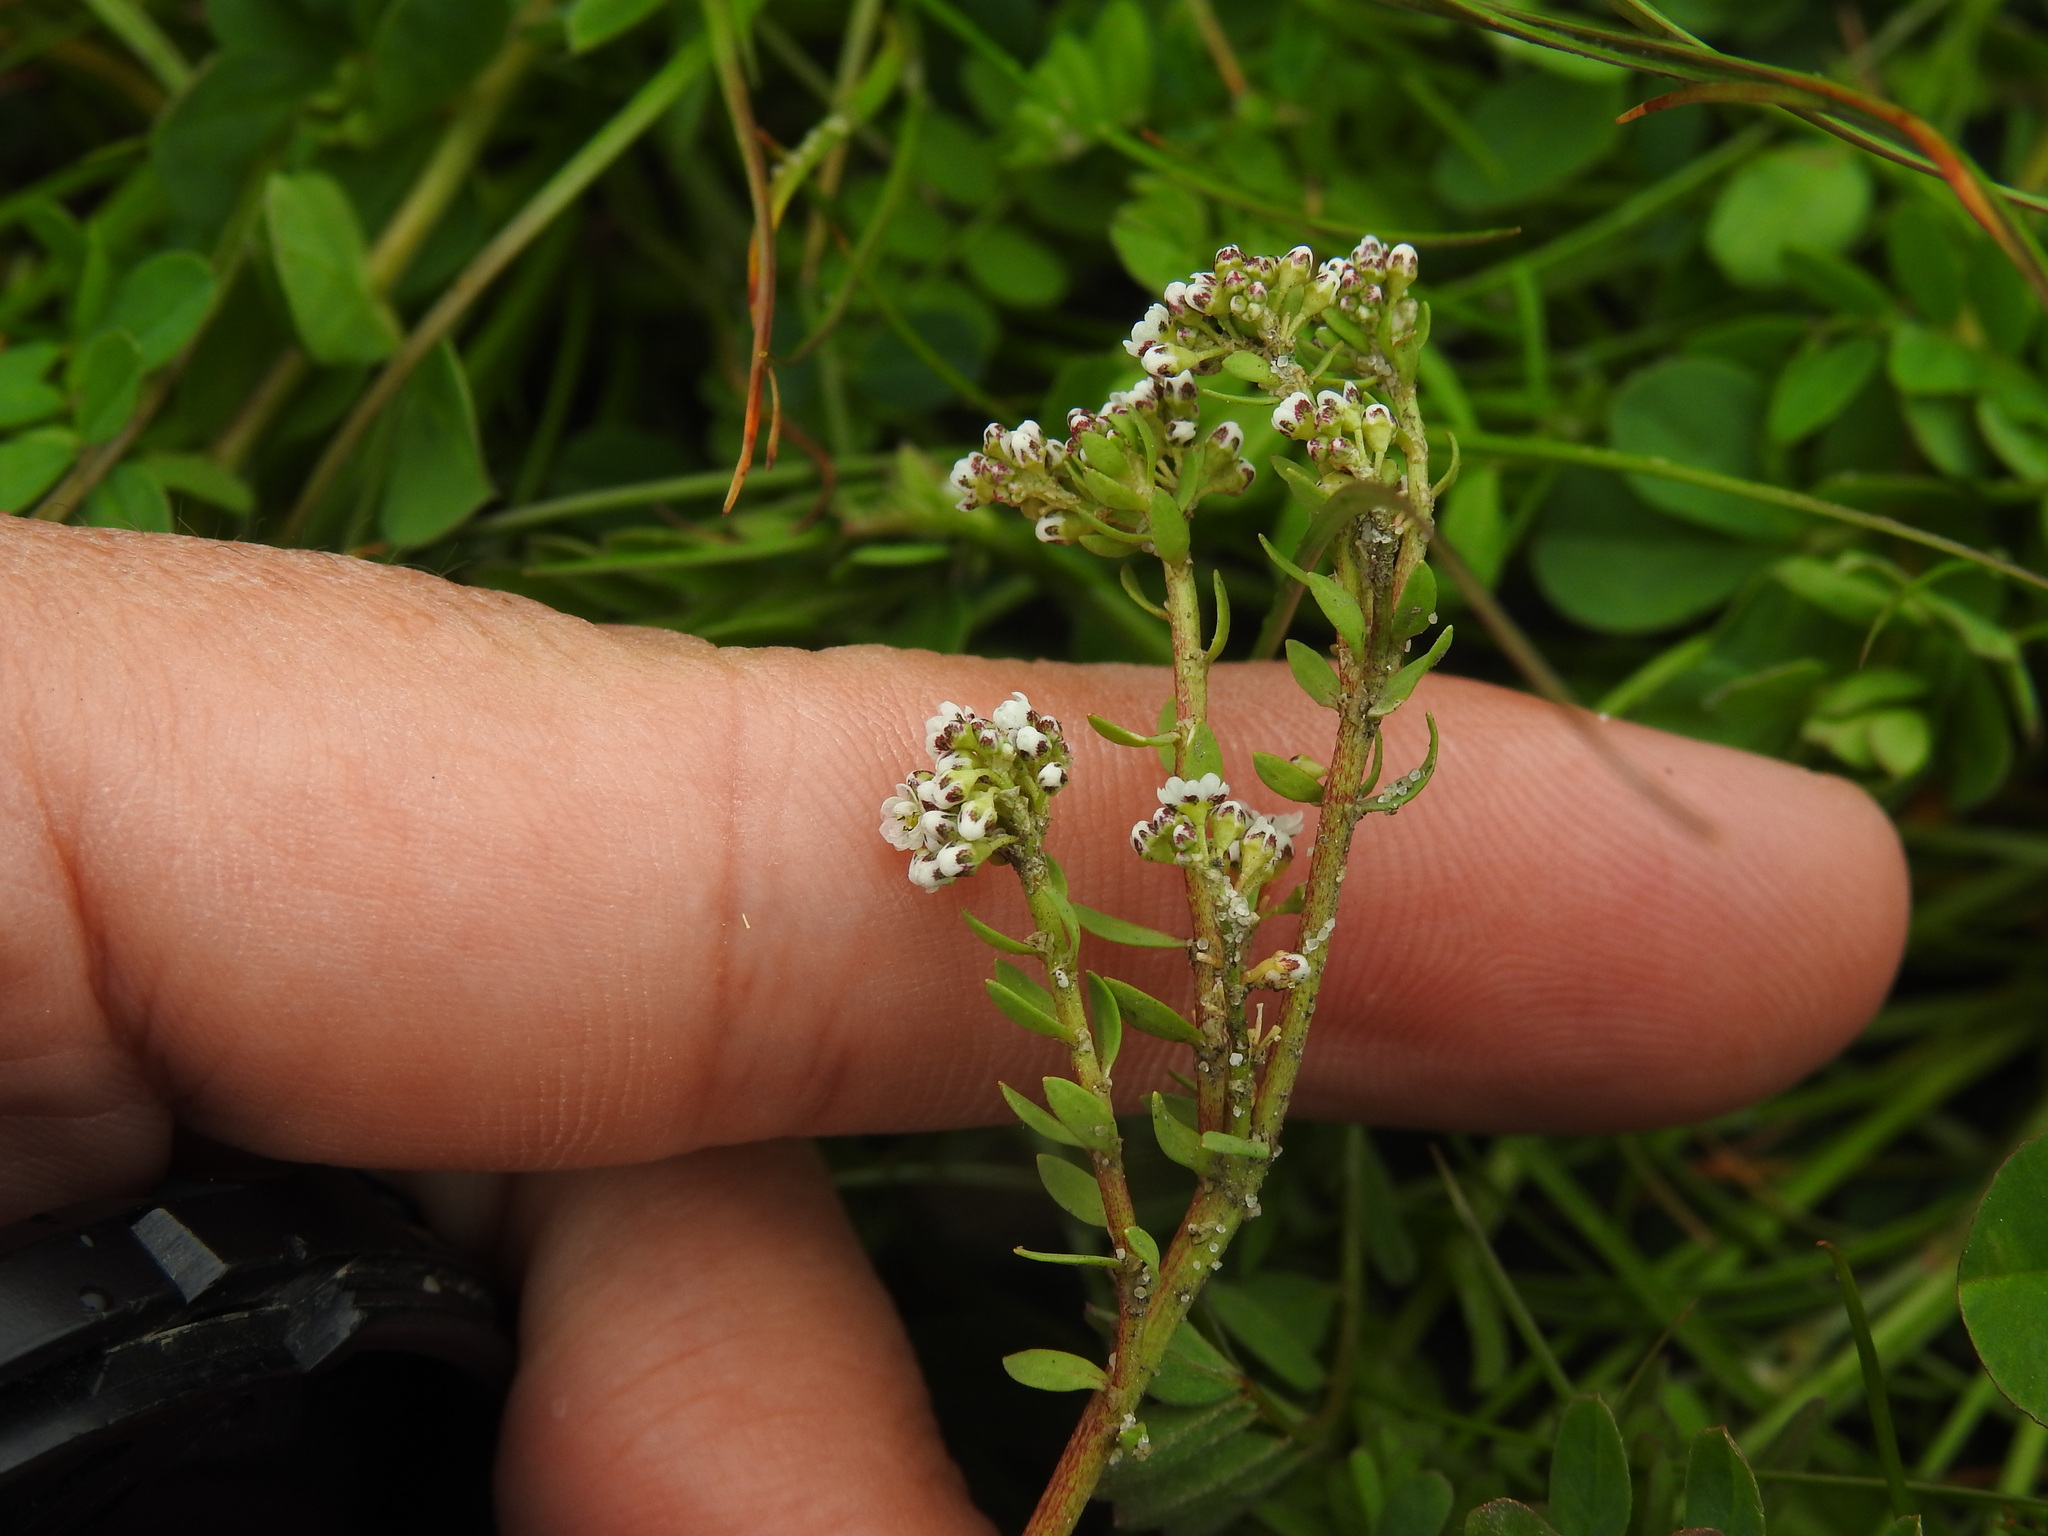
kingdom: Plantae
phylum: Tracheophyta
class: Magnoliopsida
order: Caryophyllales
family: Caryophyllaceae
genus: Corrigiola
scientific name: Corrigiola litoralis
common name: Strapwort
